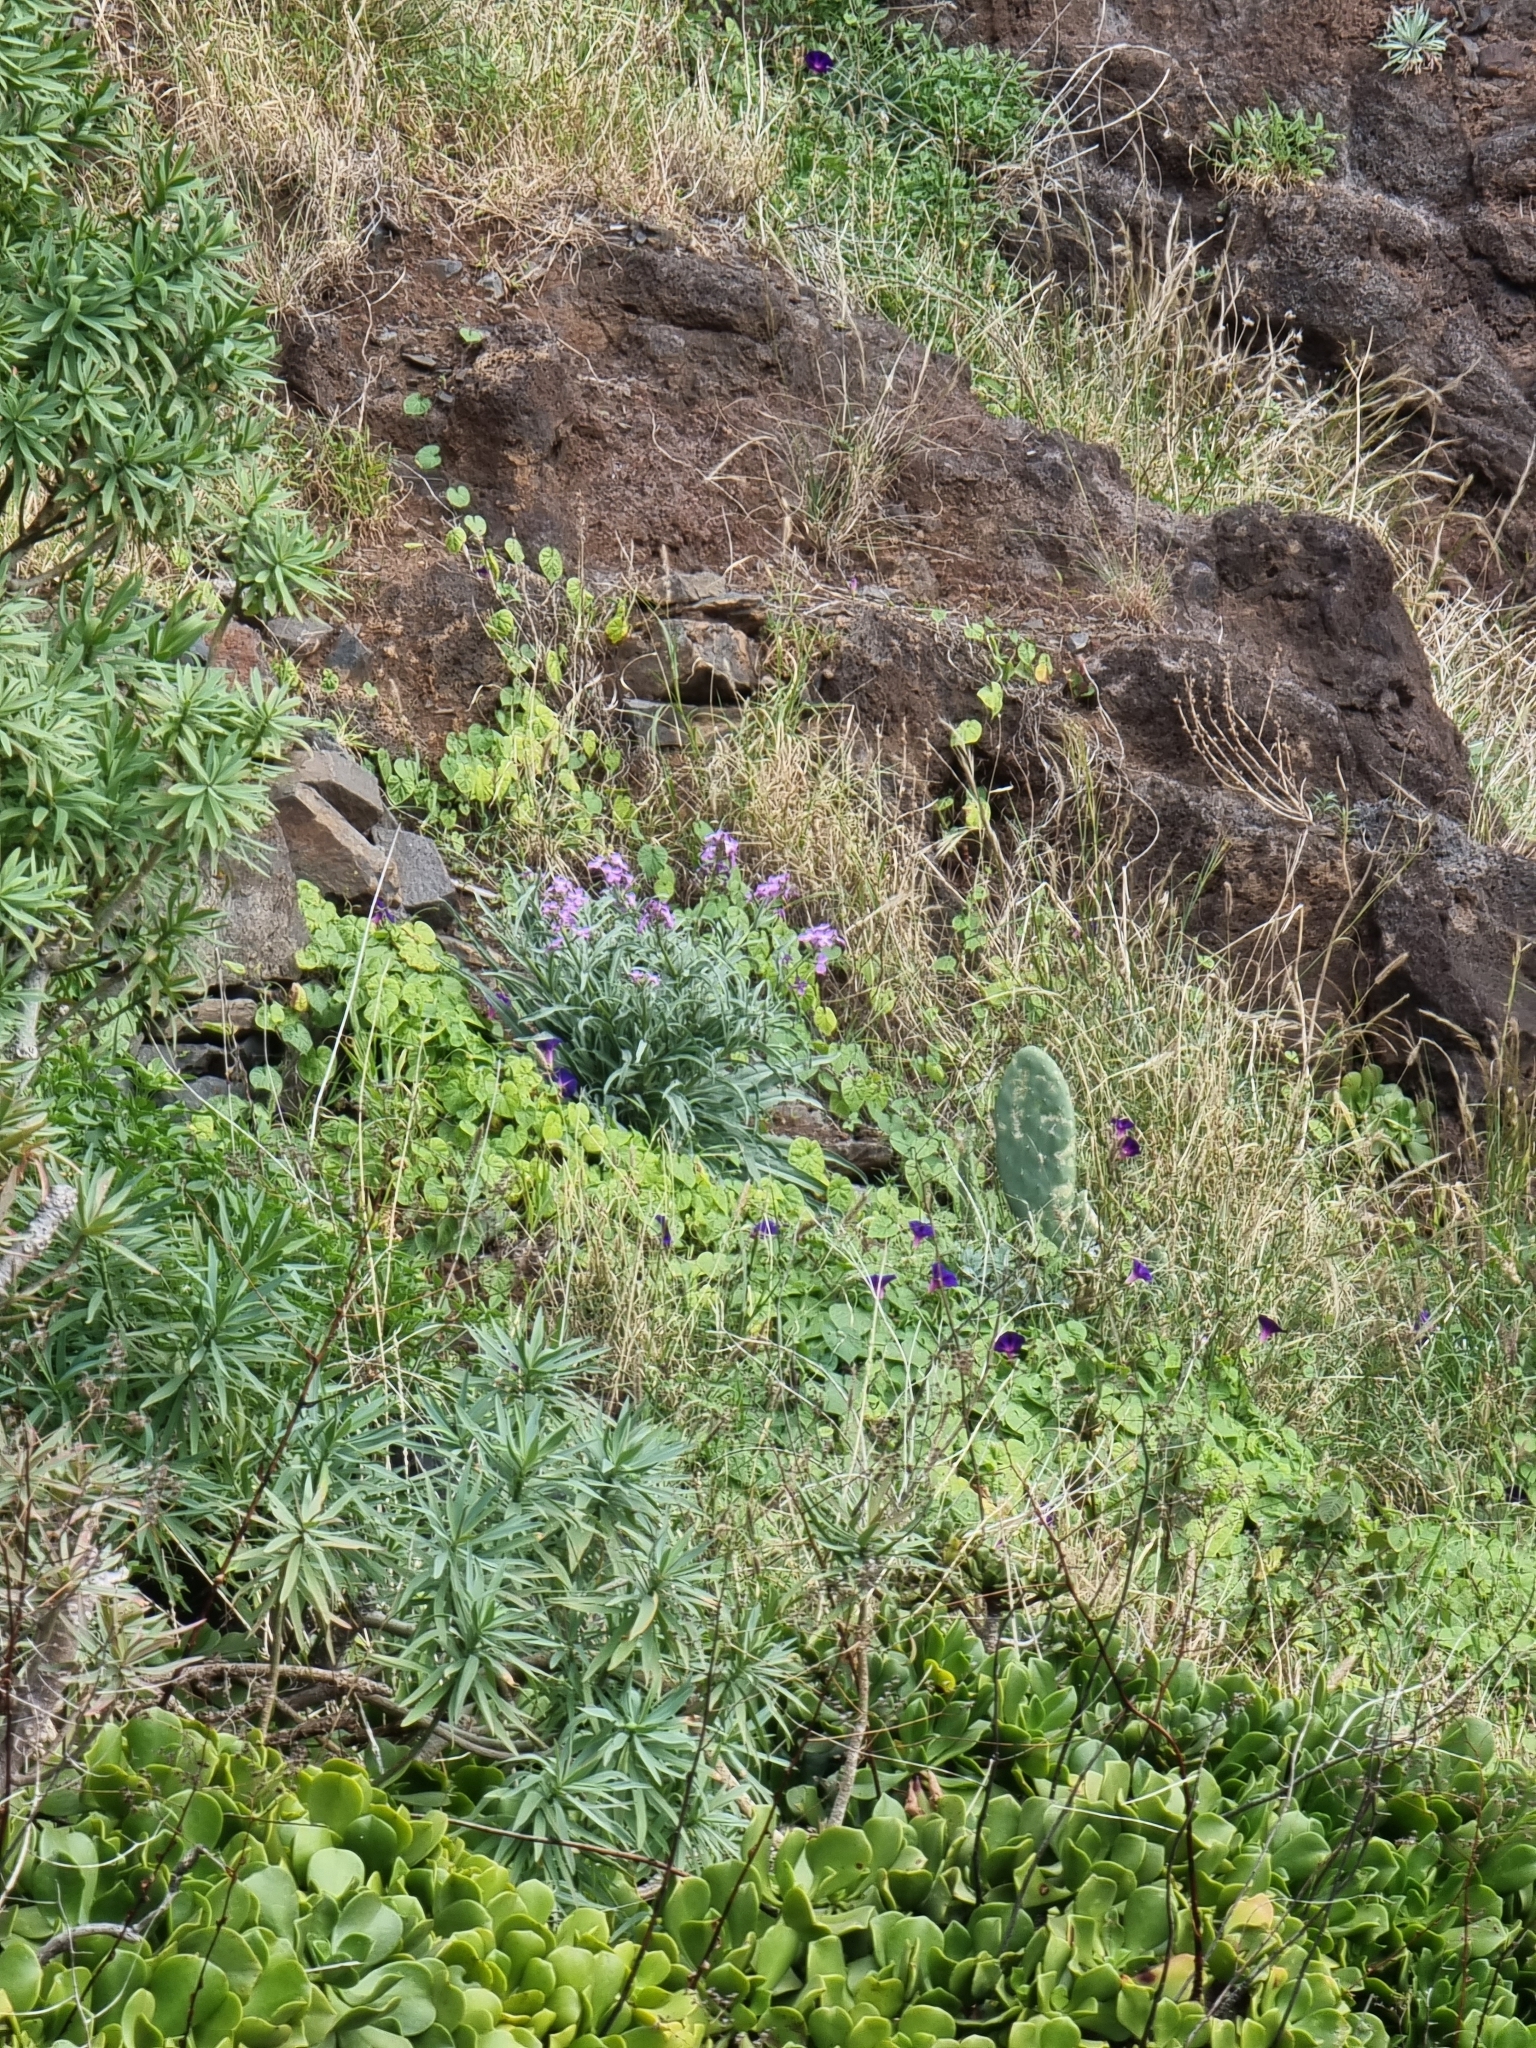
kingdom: Plantae
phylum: Tracheophyta
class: Magnoliopsida
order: Brassicales
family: Brassicaceae
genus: Matthiola
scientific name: Matthiola maderensis
